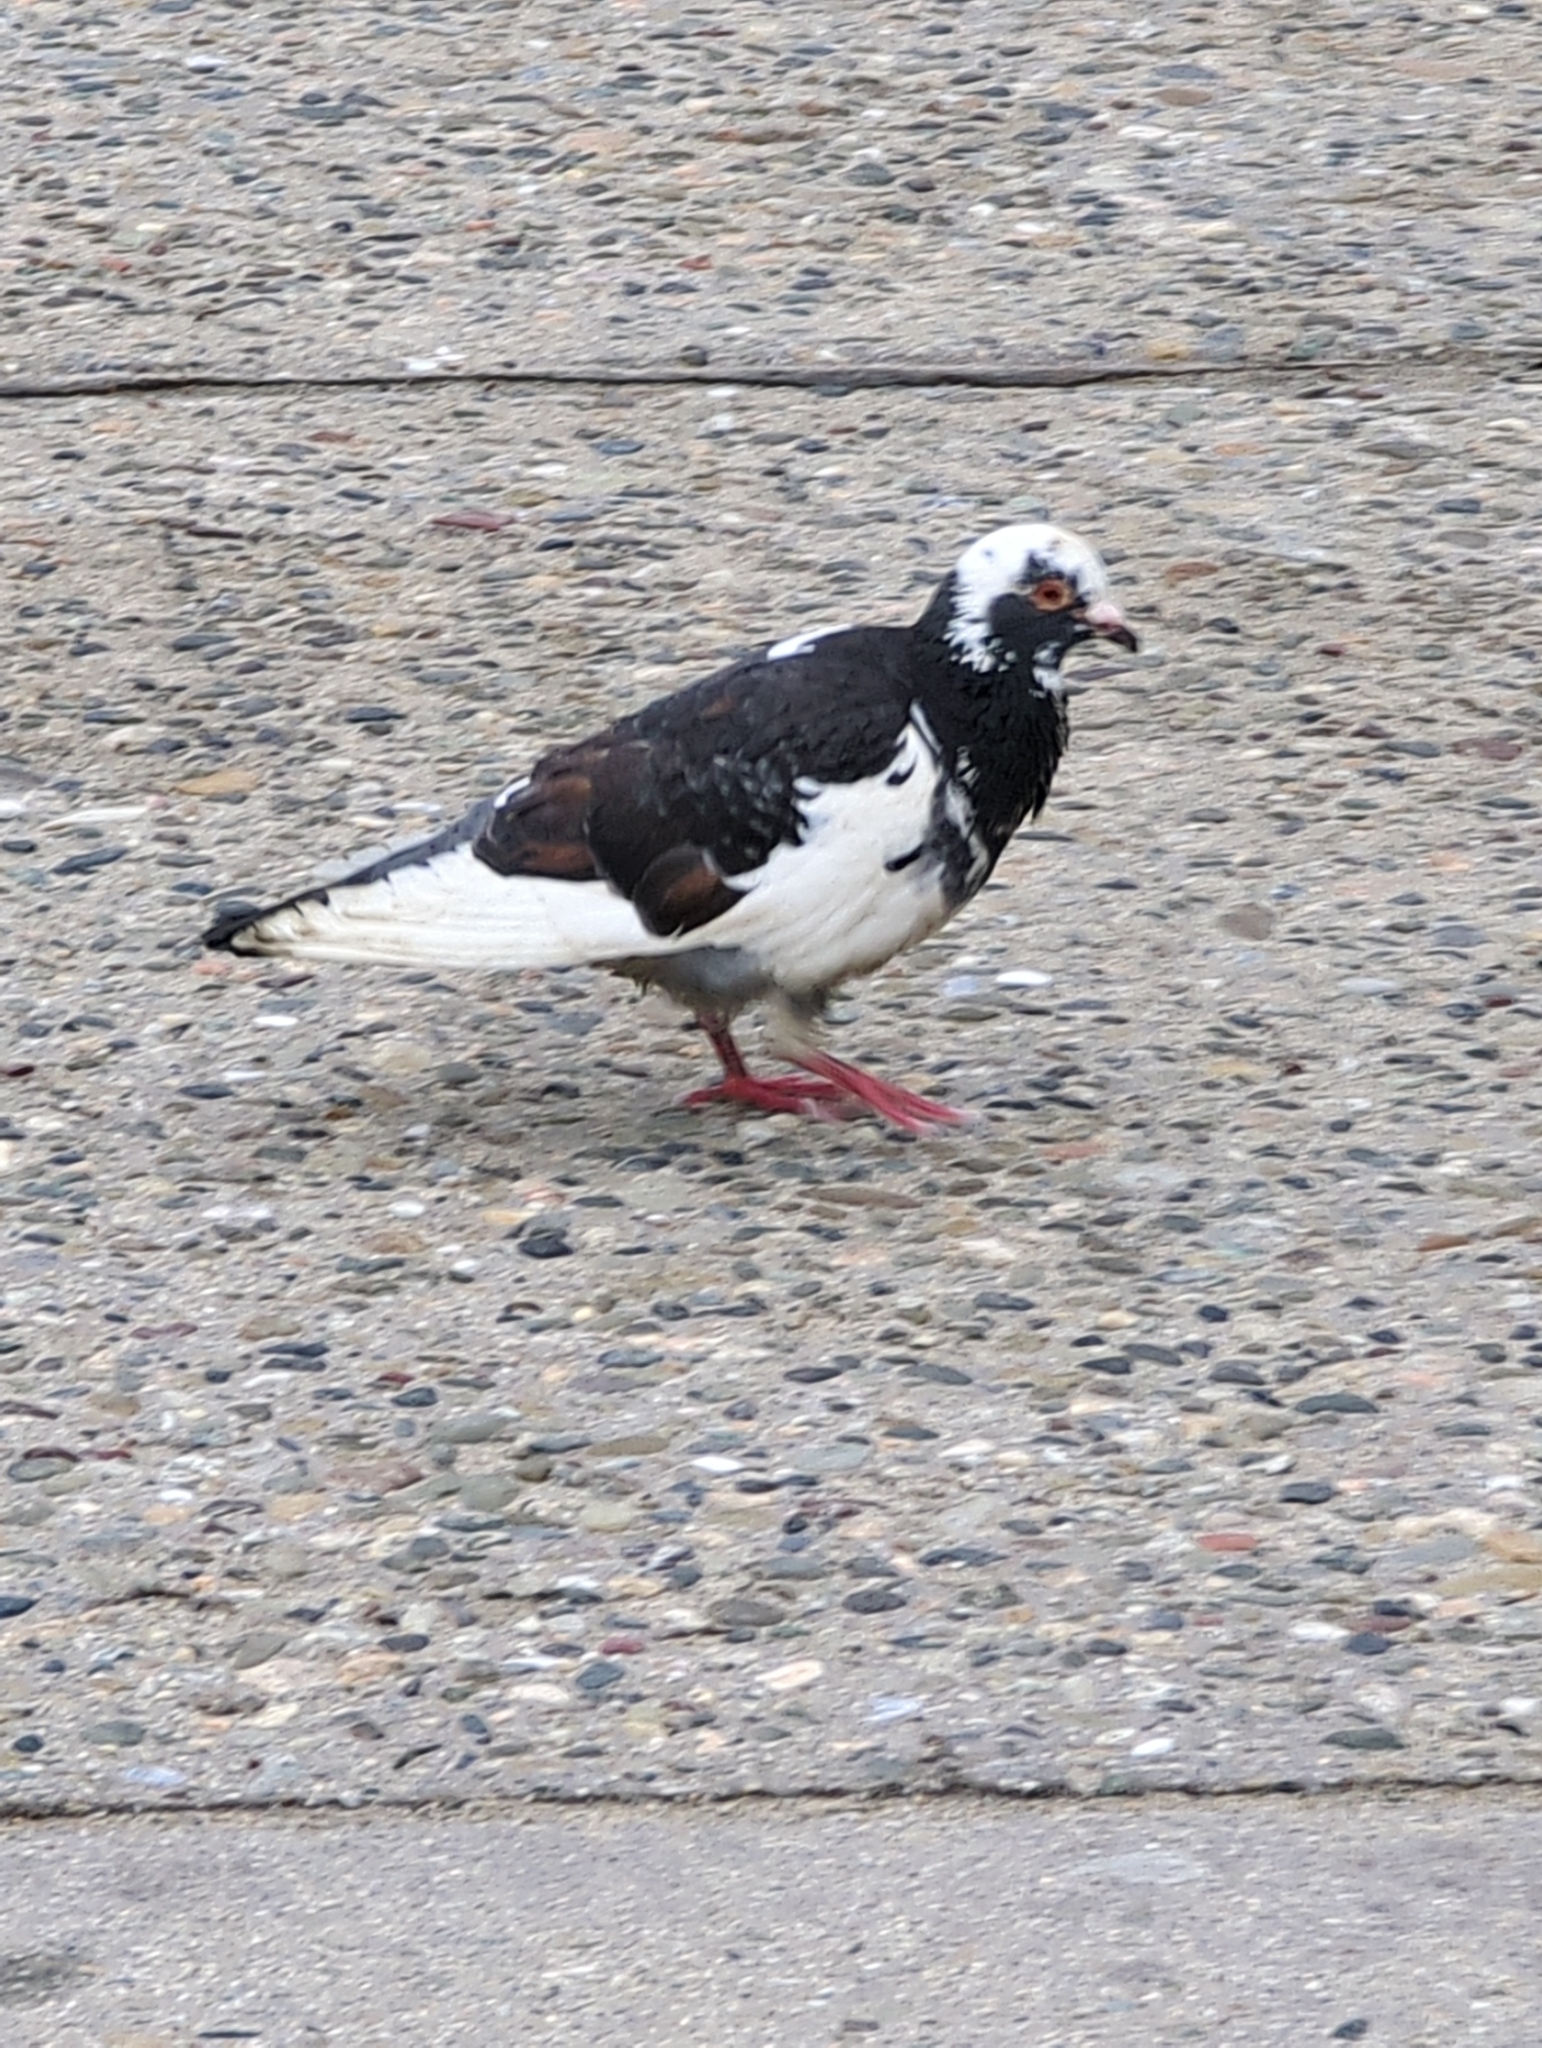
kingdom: Animalia
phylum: Chordata
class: Aves
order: Columbiformes
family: Columbidae
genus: Columba
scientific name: Columba livia
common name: Rock pigeon
